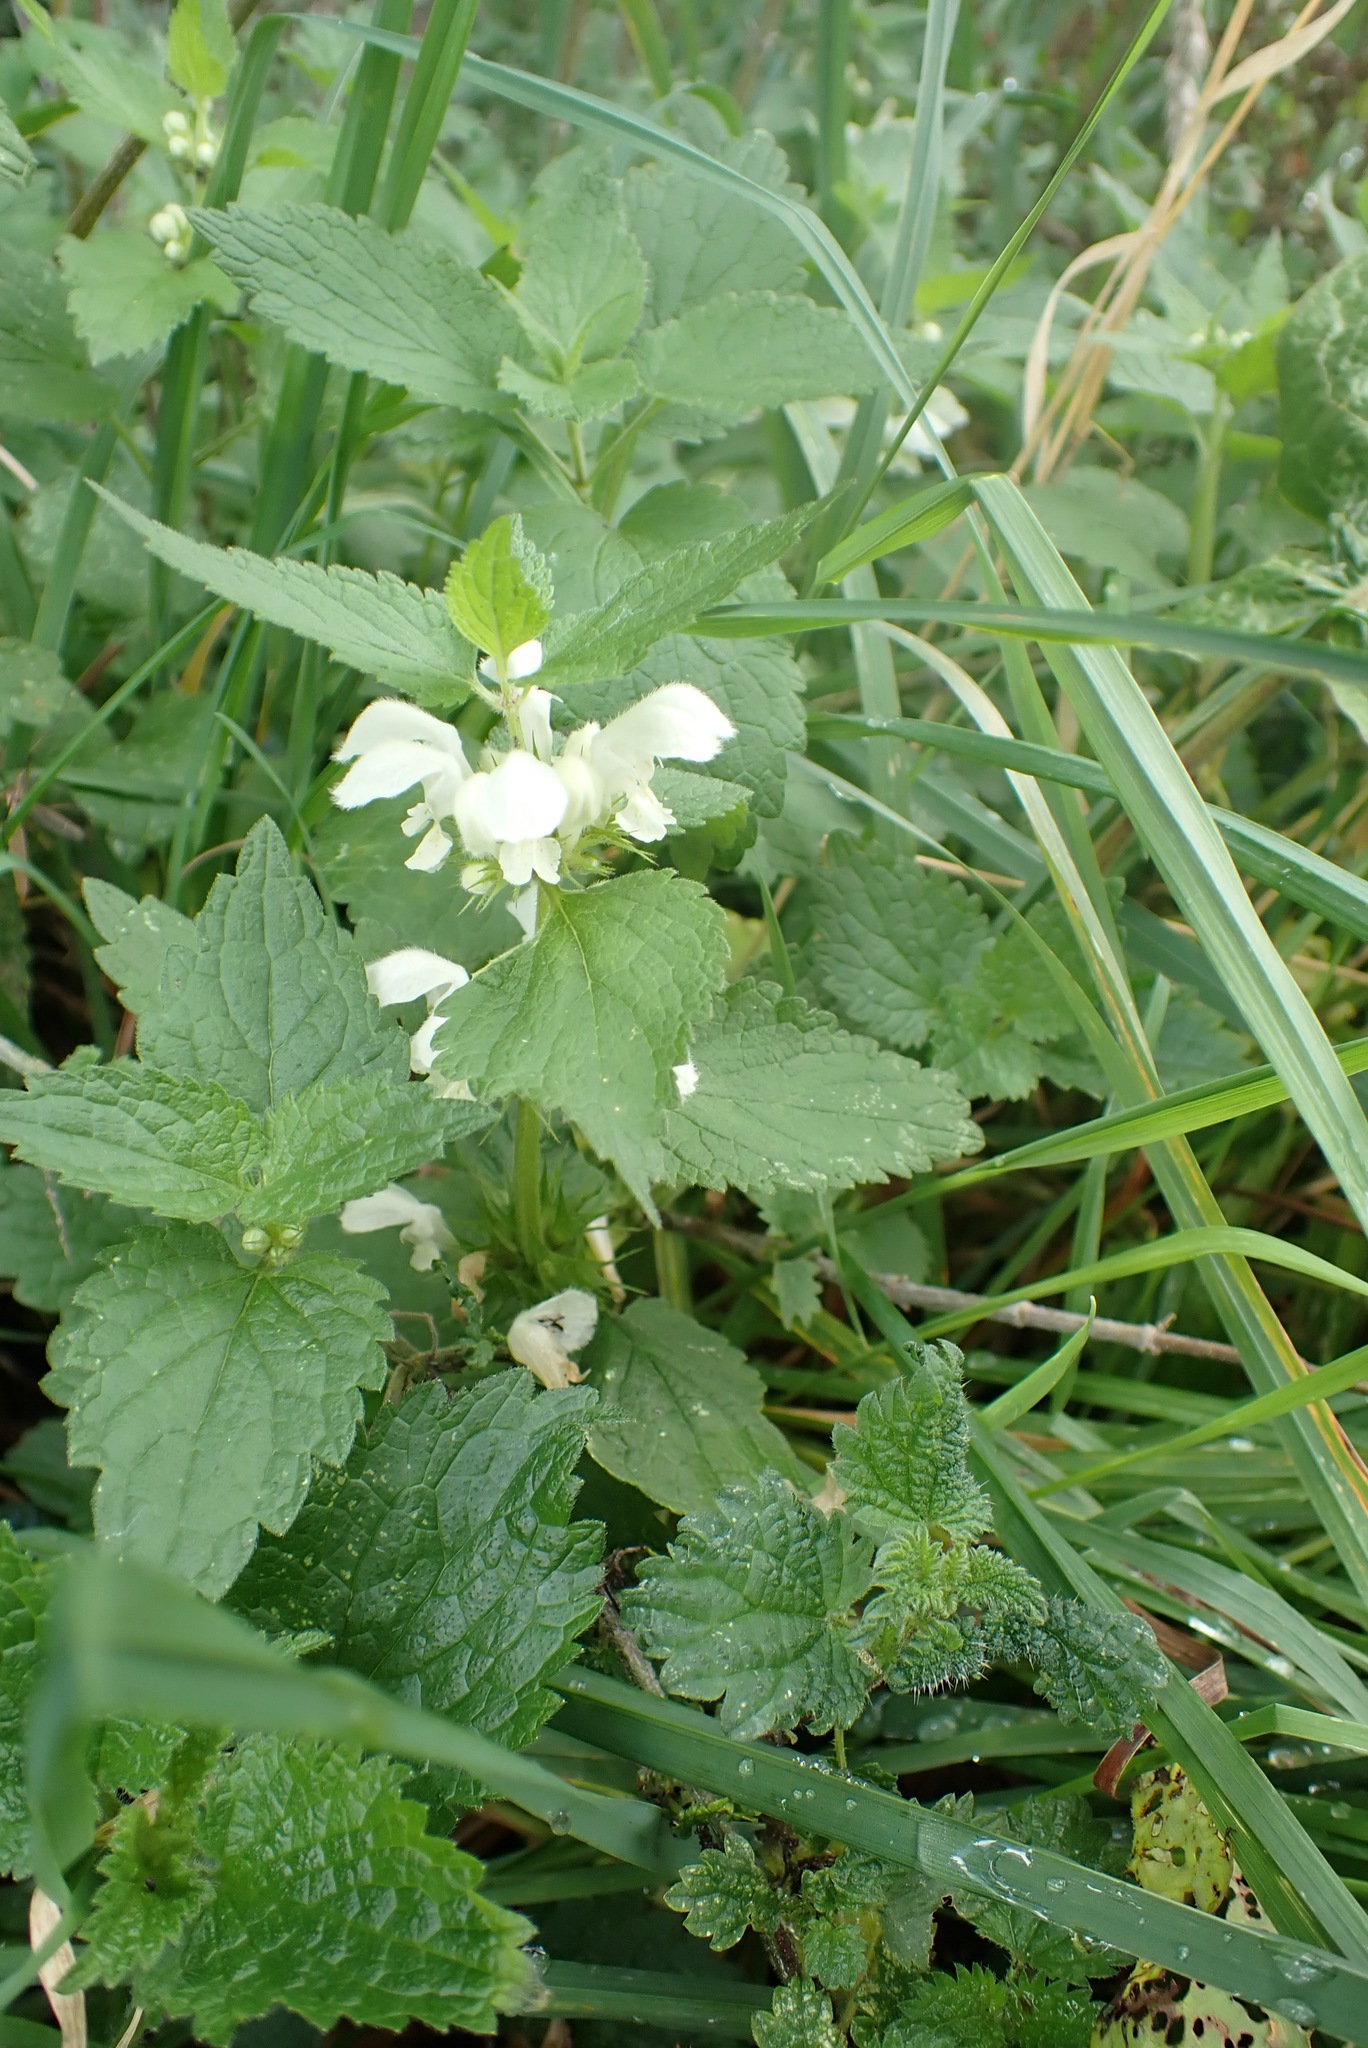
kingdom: Plantae
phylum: Tracheophyta
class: Magnoliopsida
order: Lamiales
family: Lamiaceae
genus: Lamium
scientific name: Lamium album
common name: White dead-nettle
